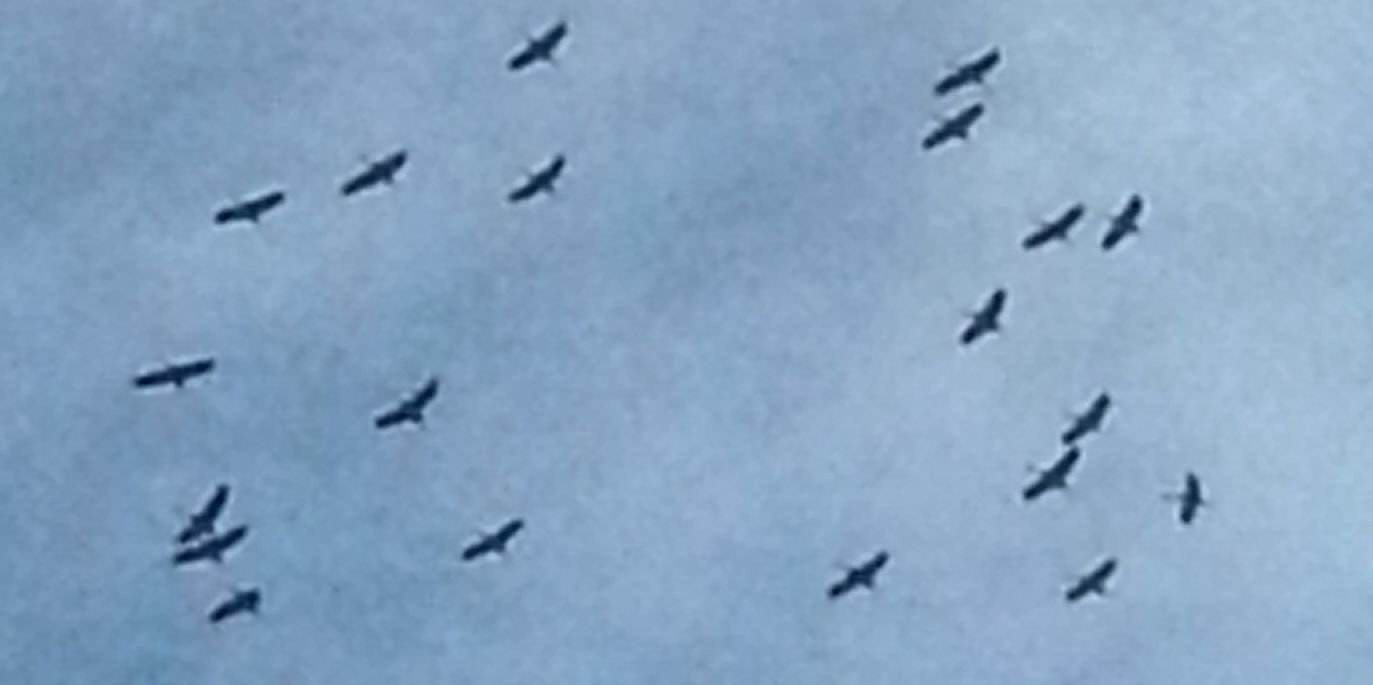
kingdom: Animalia
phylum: Chordata
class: Aves
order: Gruiformes
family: Gruidae
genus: Grus
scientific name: Grus grus
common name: Common crane
